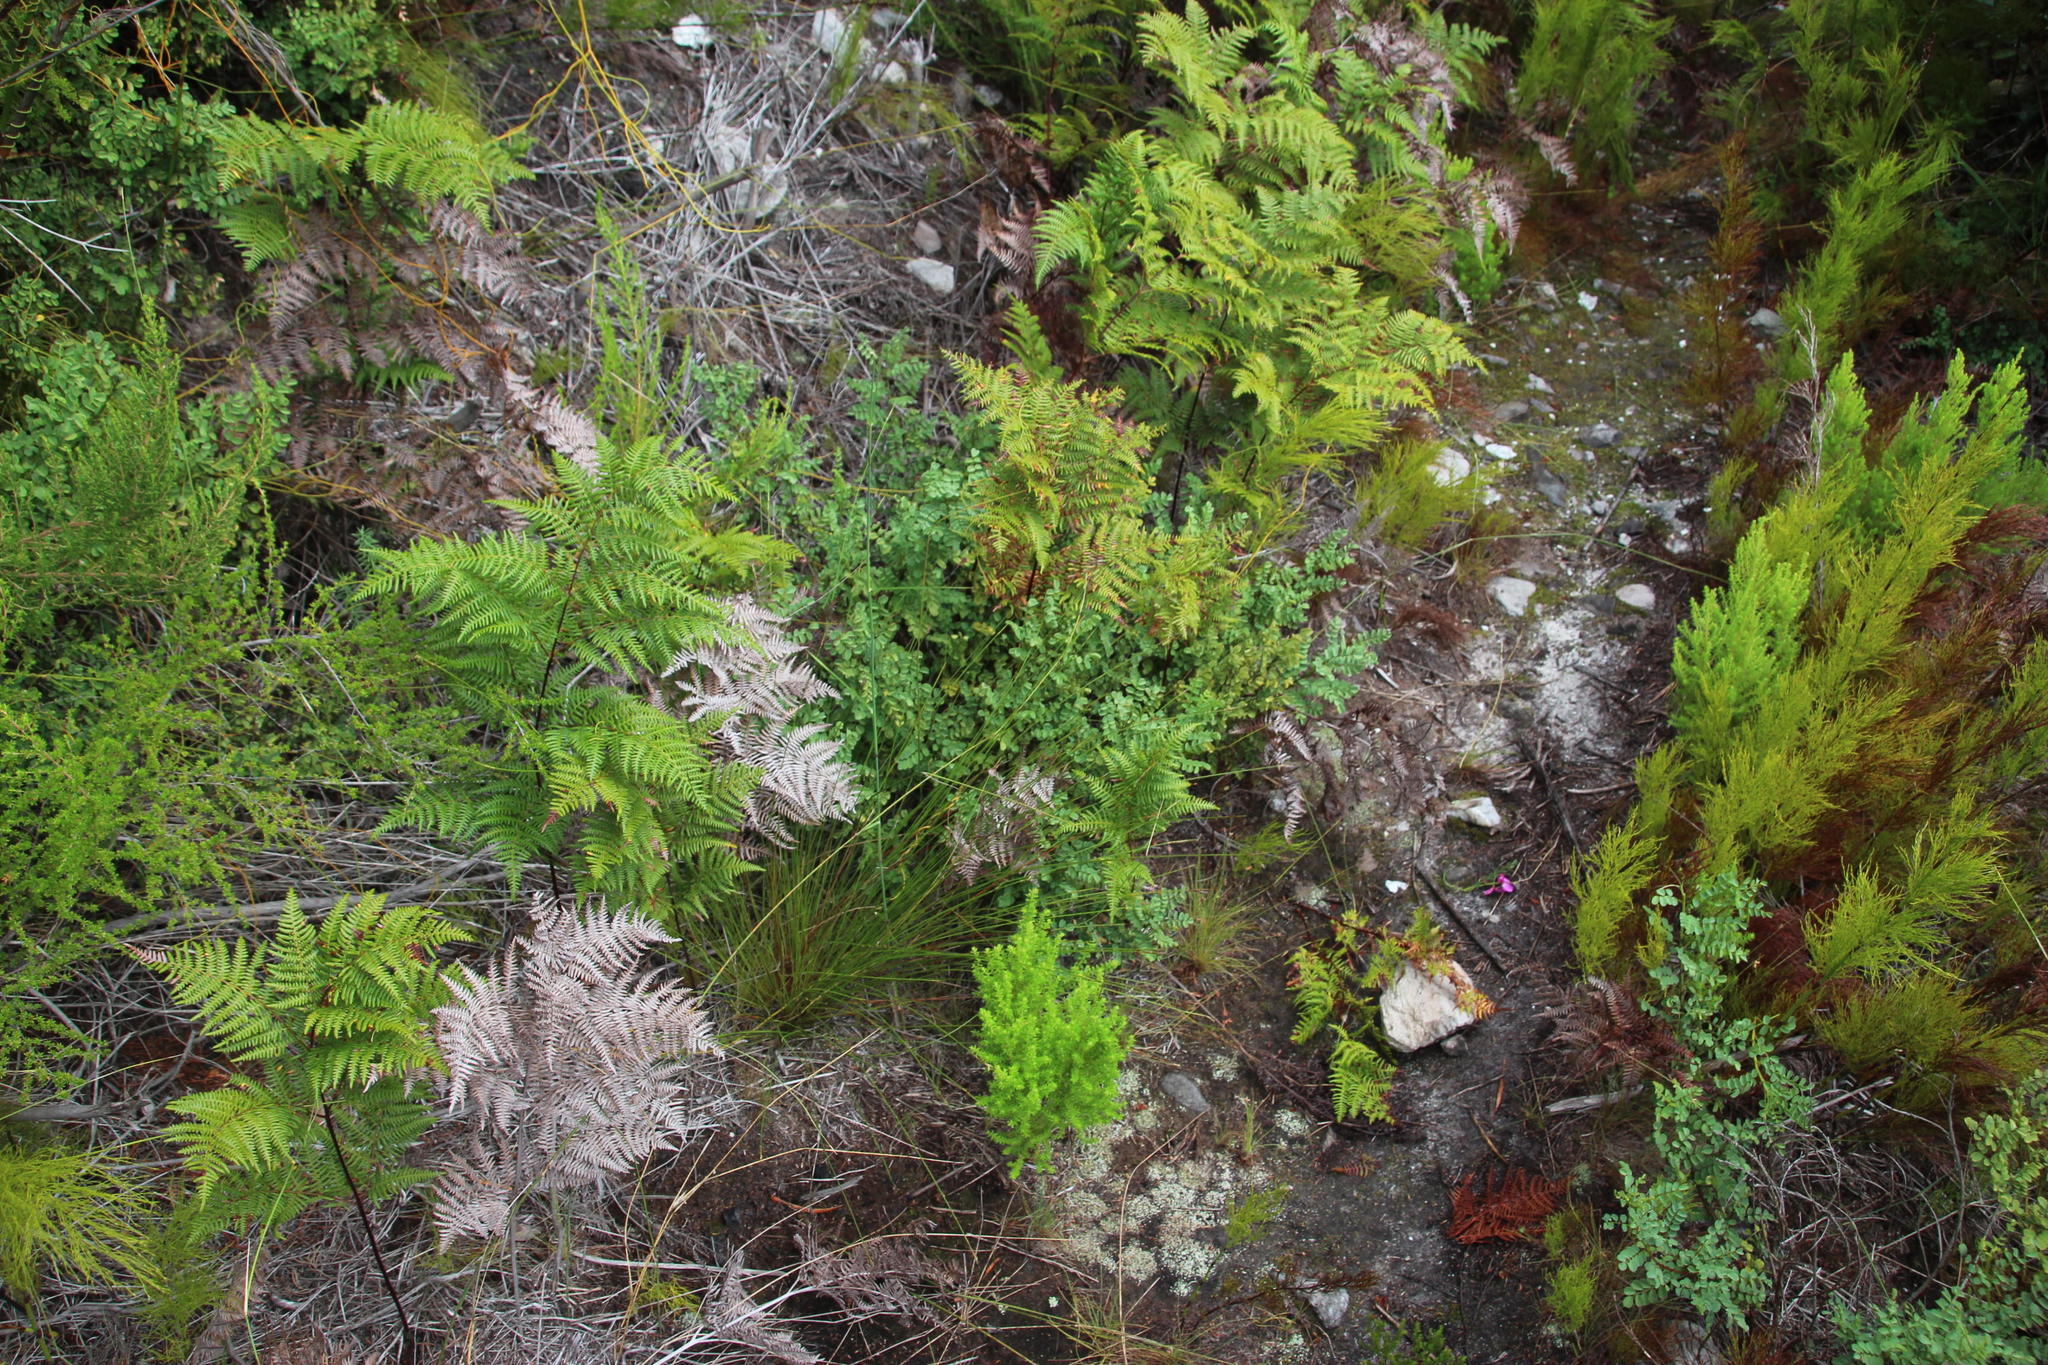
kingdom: Plantae
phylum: Tracheophyta
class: Magnoliopsida
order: Fabales
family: Fabaceae
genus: Indigofera
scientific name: Indigofera langebergensis
